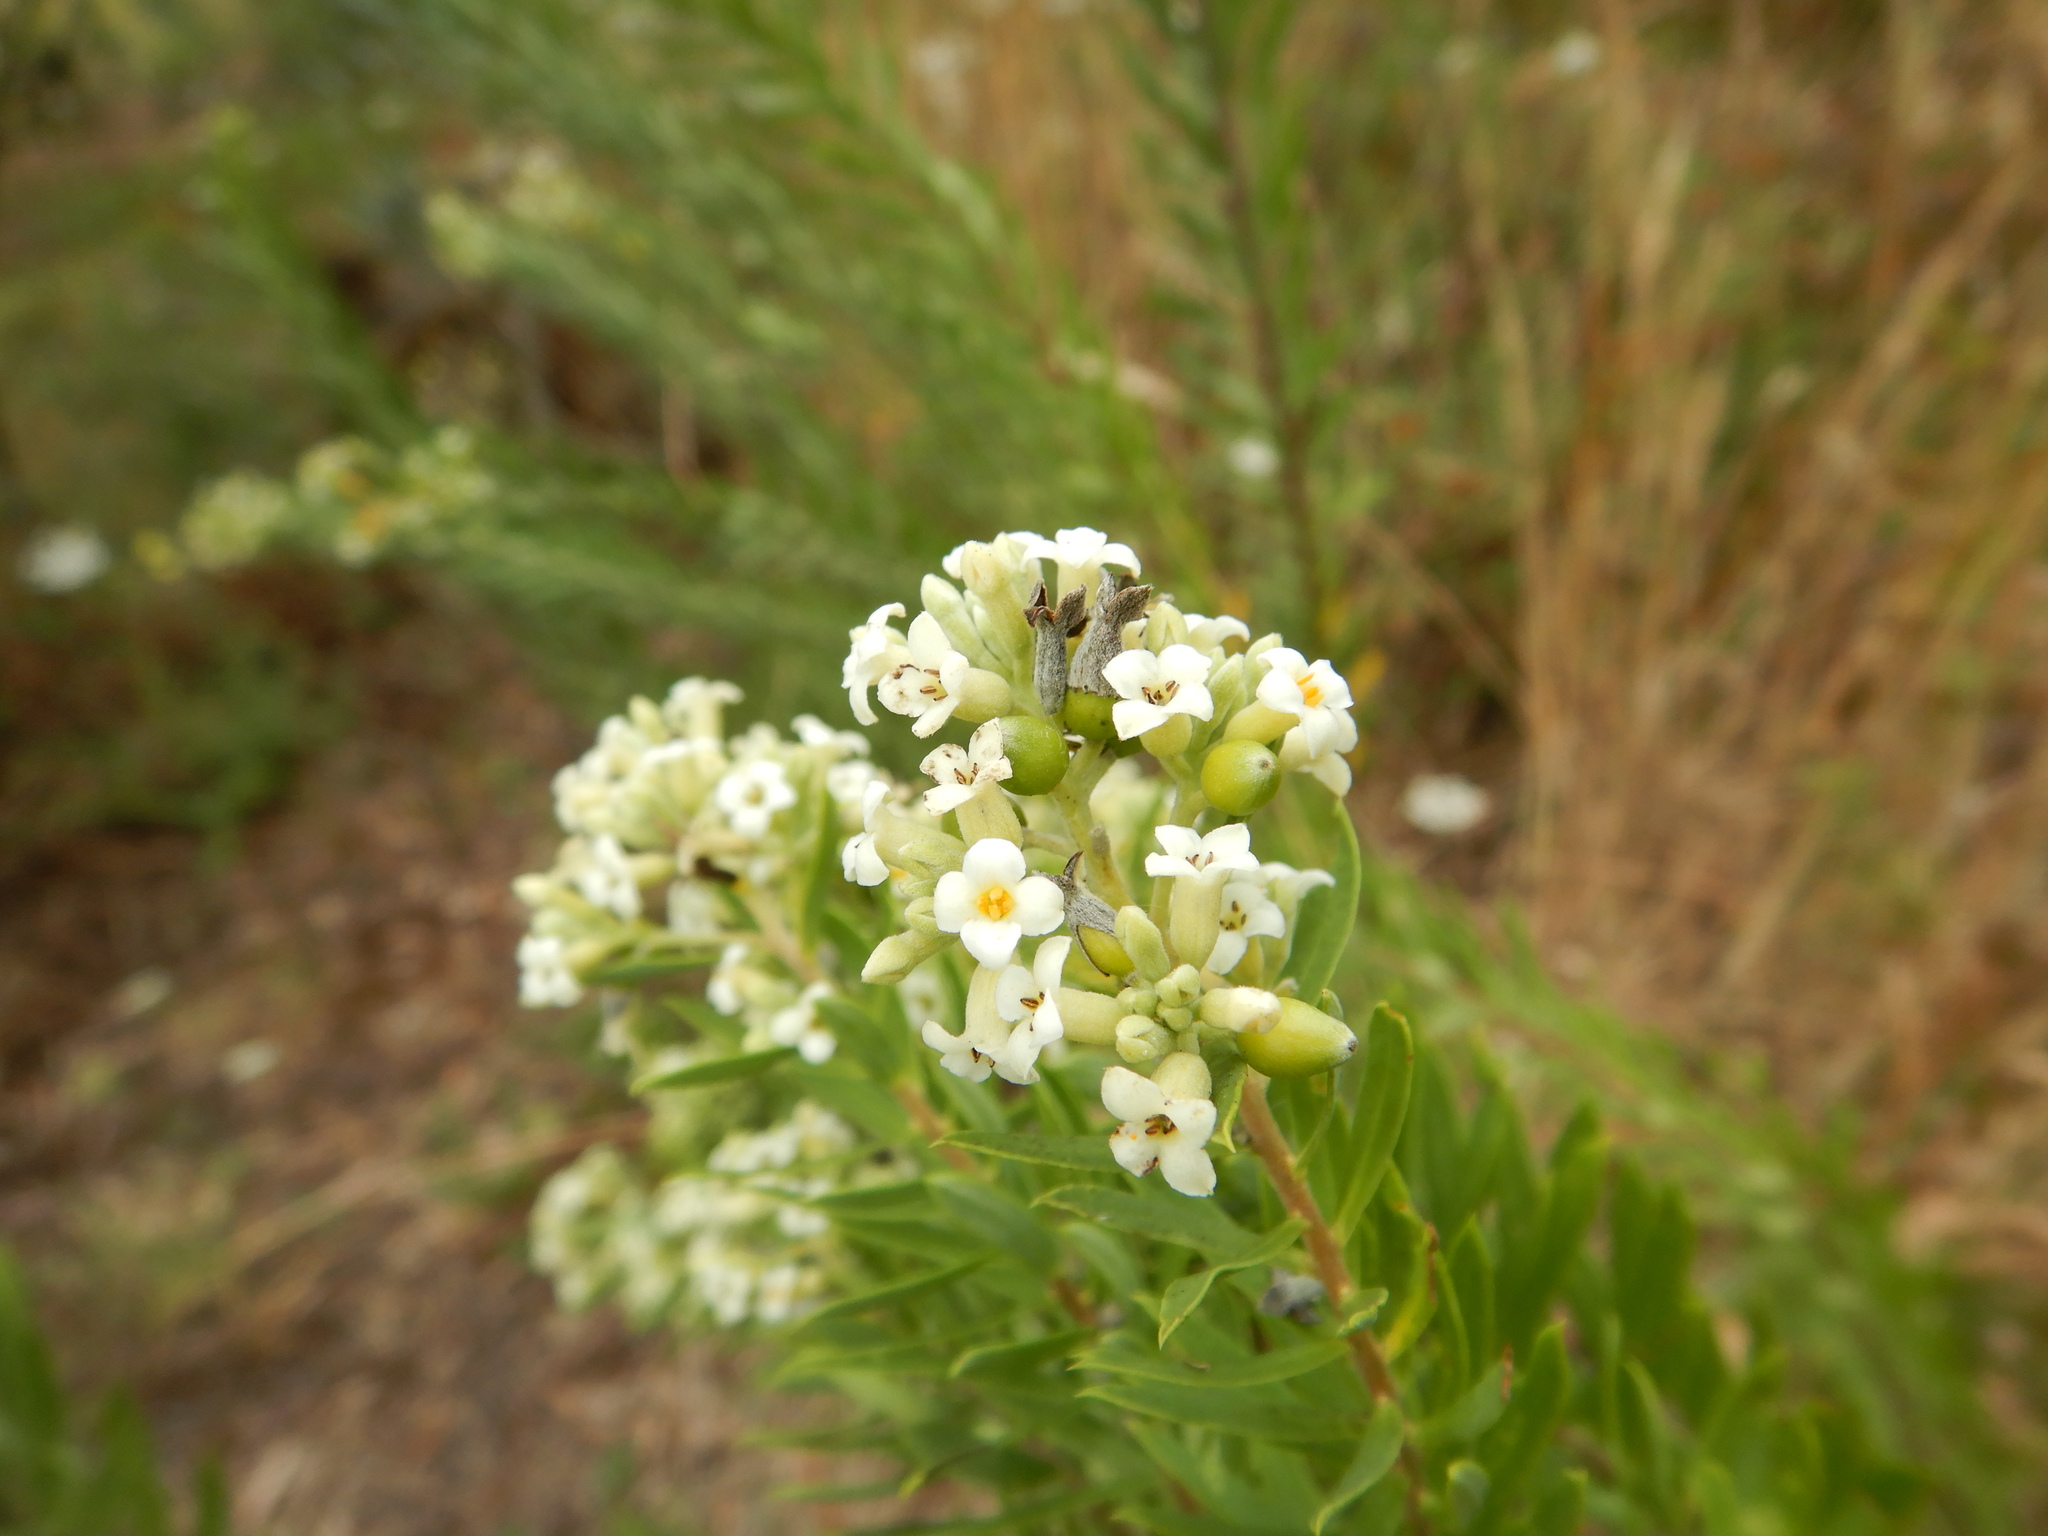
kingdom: Plantae
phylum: Tracheophyta
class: Magnoliopsida
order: Malvales
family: Thymelaeaceae
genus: Daphne
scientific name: Daphne gnidium
